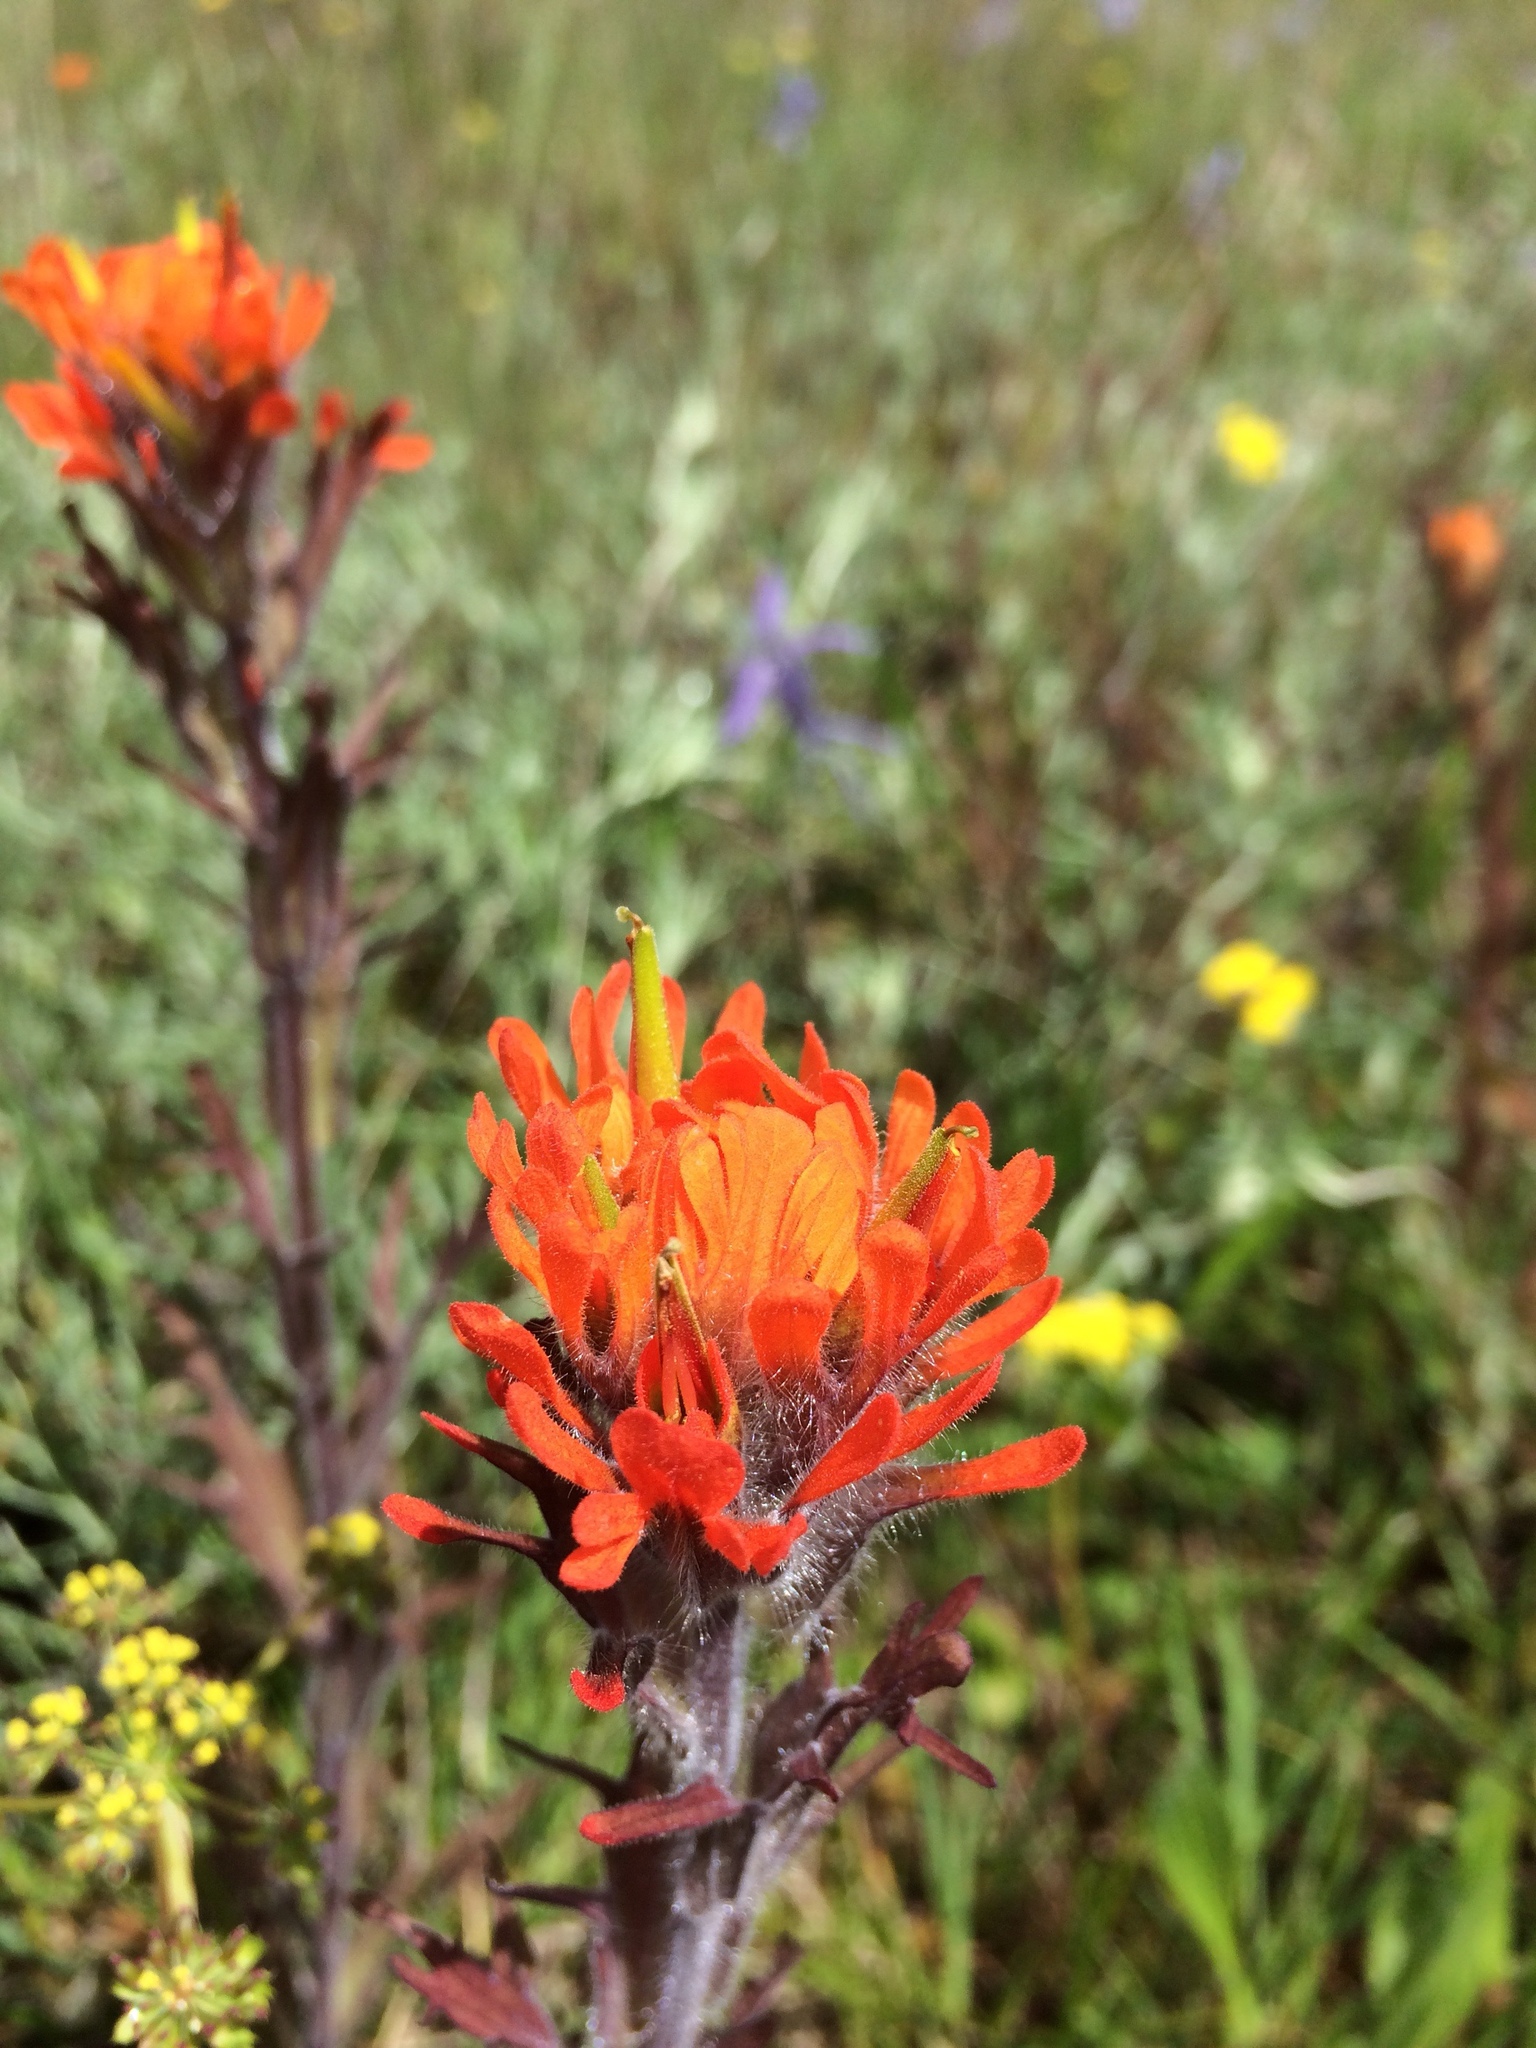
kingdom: Plantae
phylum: Tracheophyta
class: Magnoliopsida
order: Lamiales
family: Orobanchaceae
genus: Castilleja
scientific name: Castilleja hispida
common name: Bristly paintbrush
